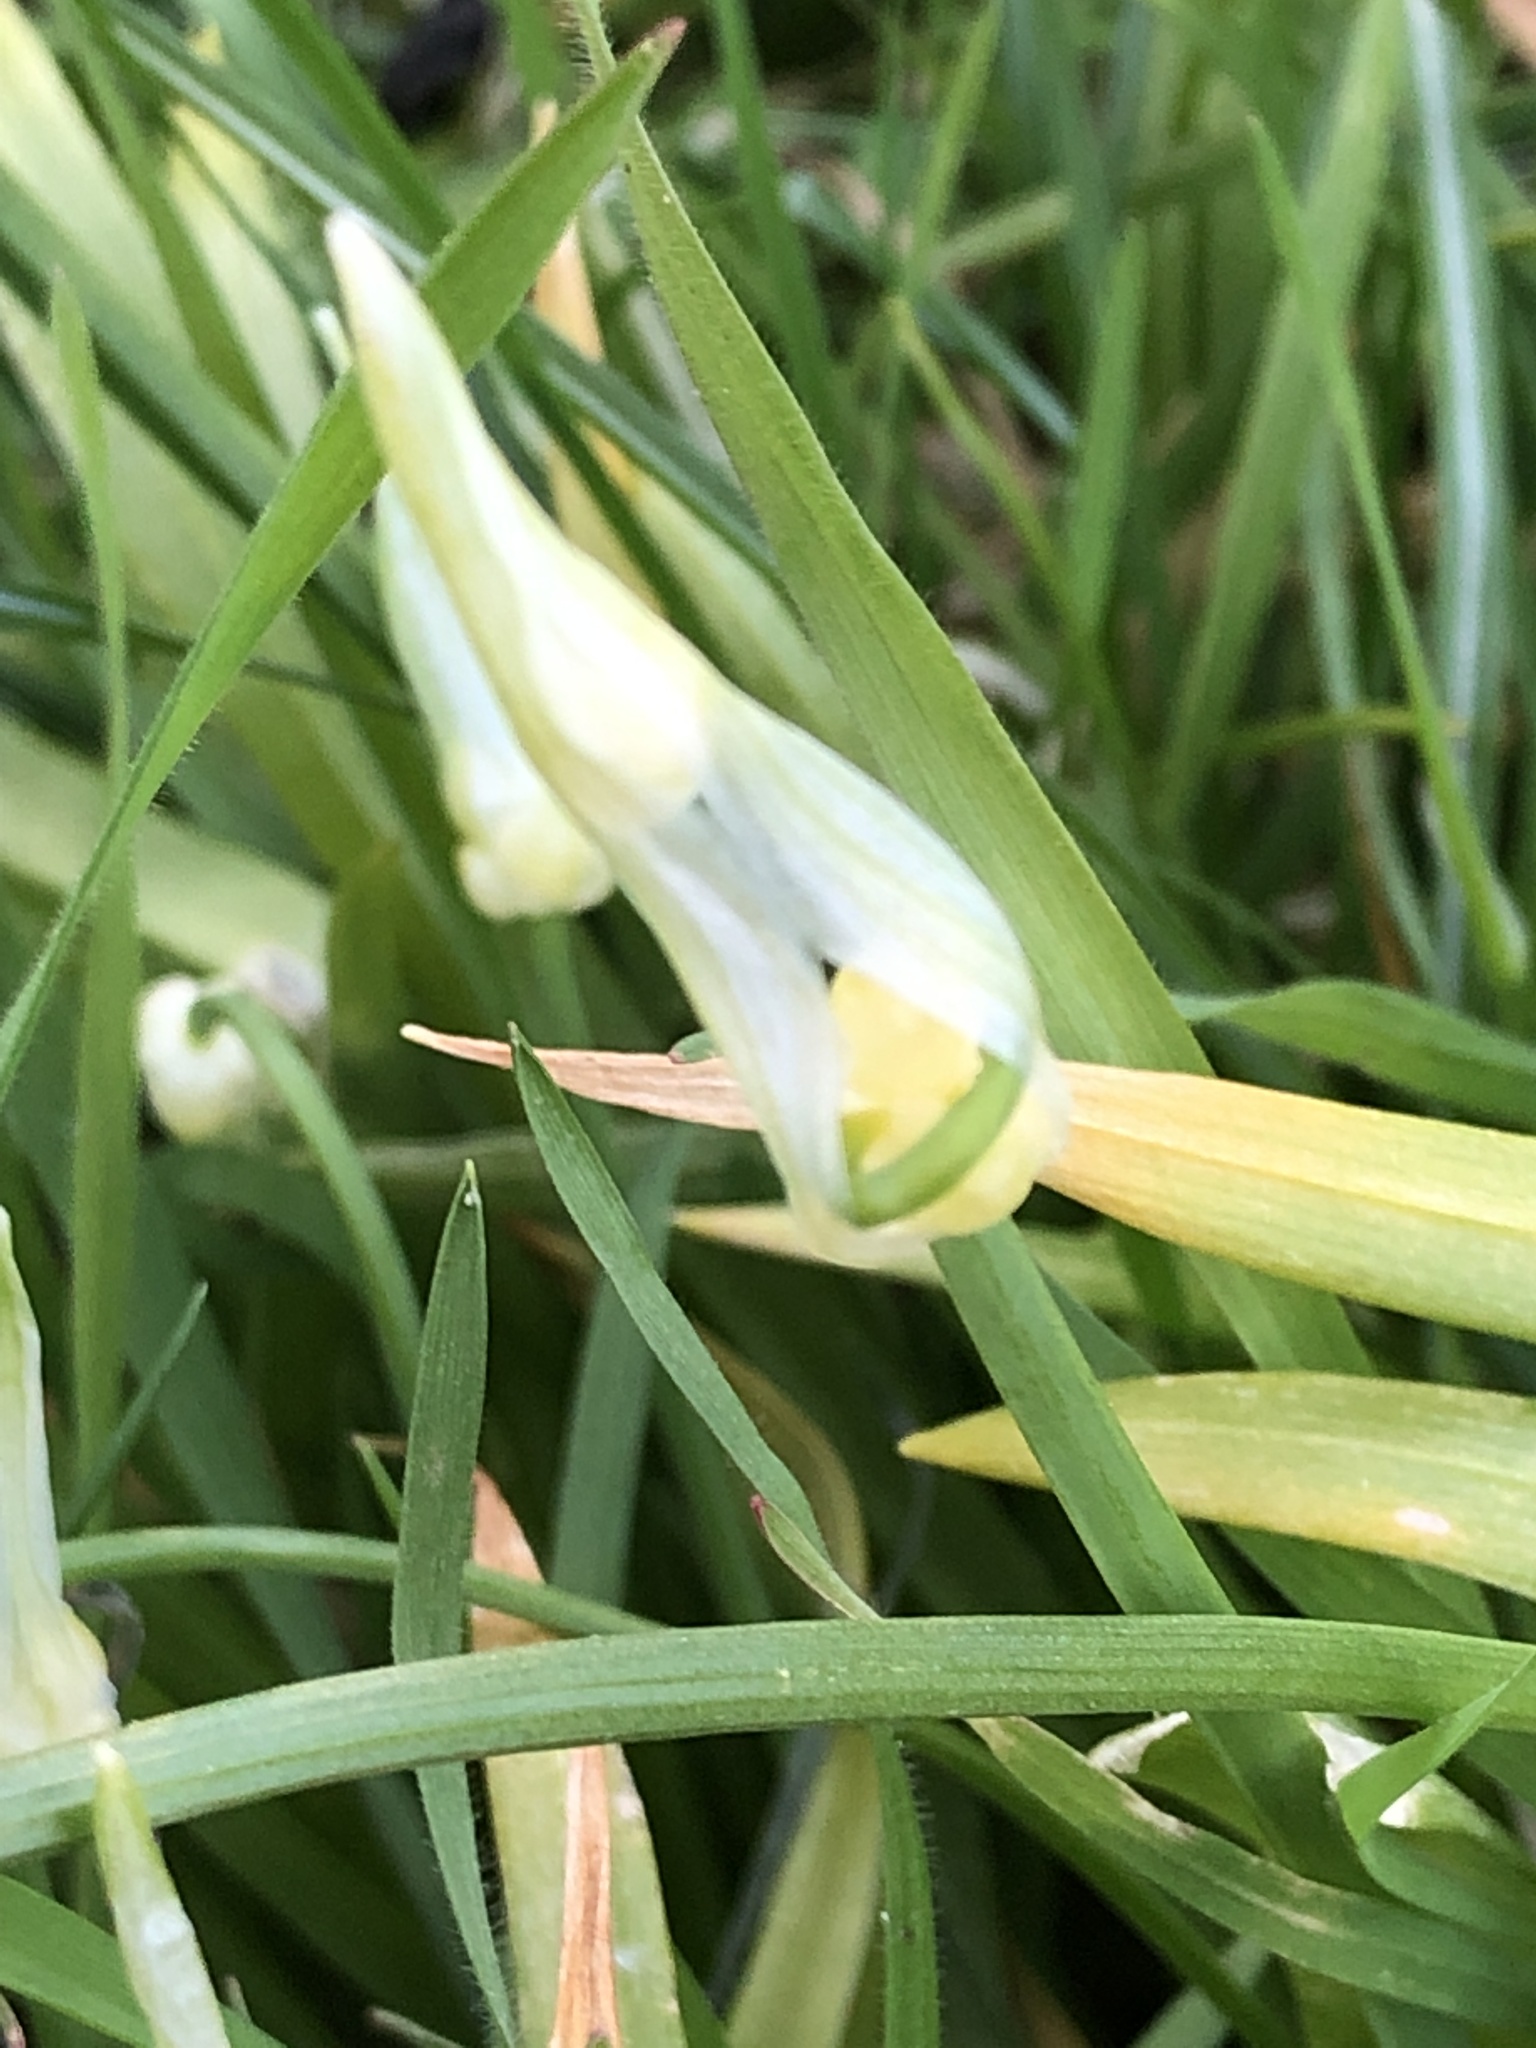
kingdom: Plantae
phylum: Tracheophyta
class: Liliopsida
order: Asparagales
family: Amaryllidaceae
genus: Allium
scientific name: Allium paradoxum
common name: Few-flowered garlic
